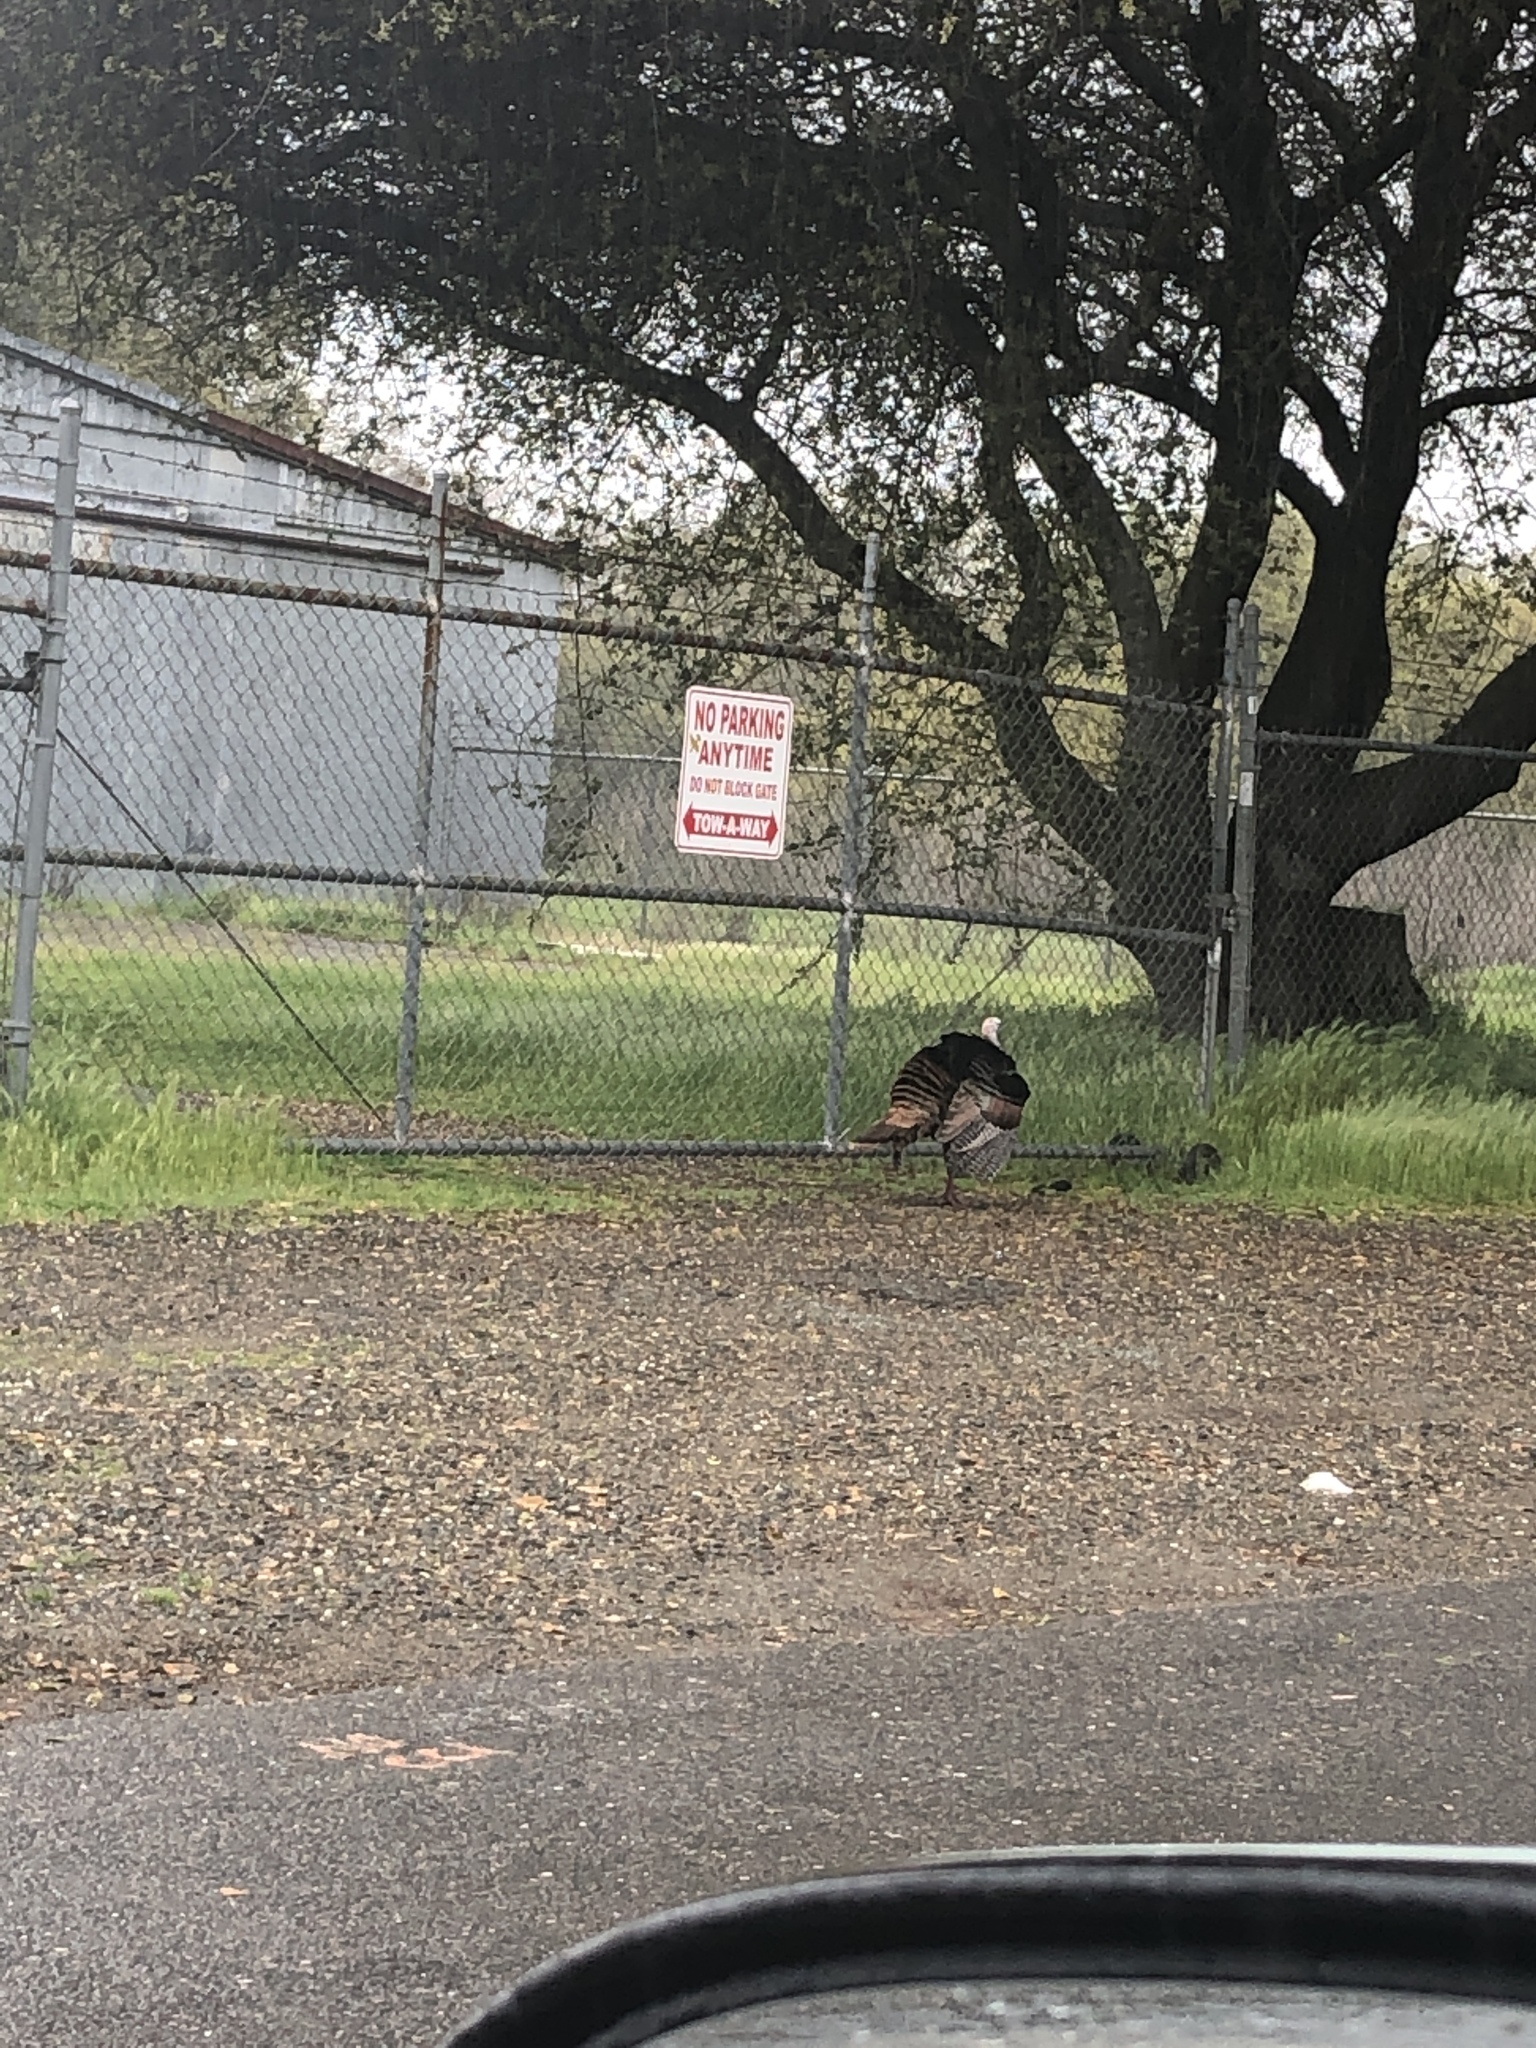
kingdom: Animalia
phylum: Chordata
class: Aves
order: Galliformes
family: Phasianidae
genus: Meleagris
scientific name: Meleagris gallopavo
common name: Wild turkey
